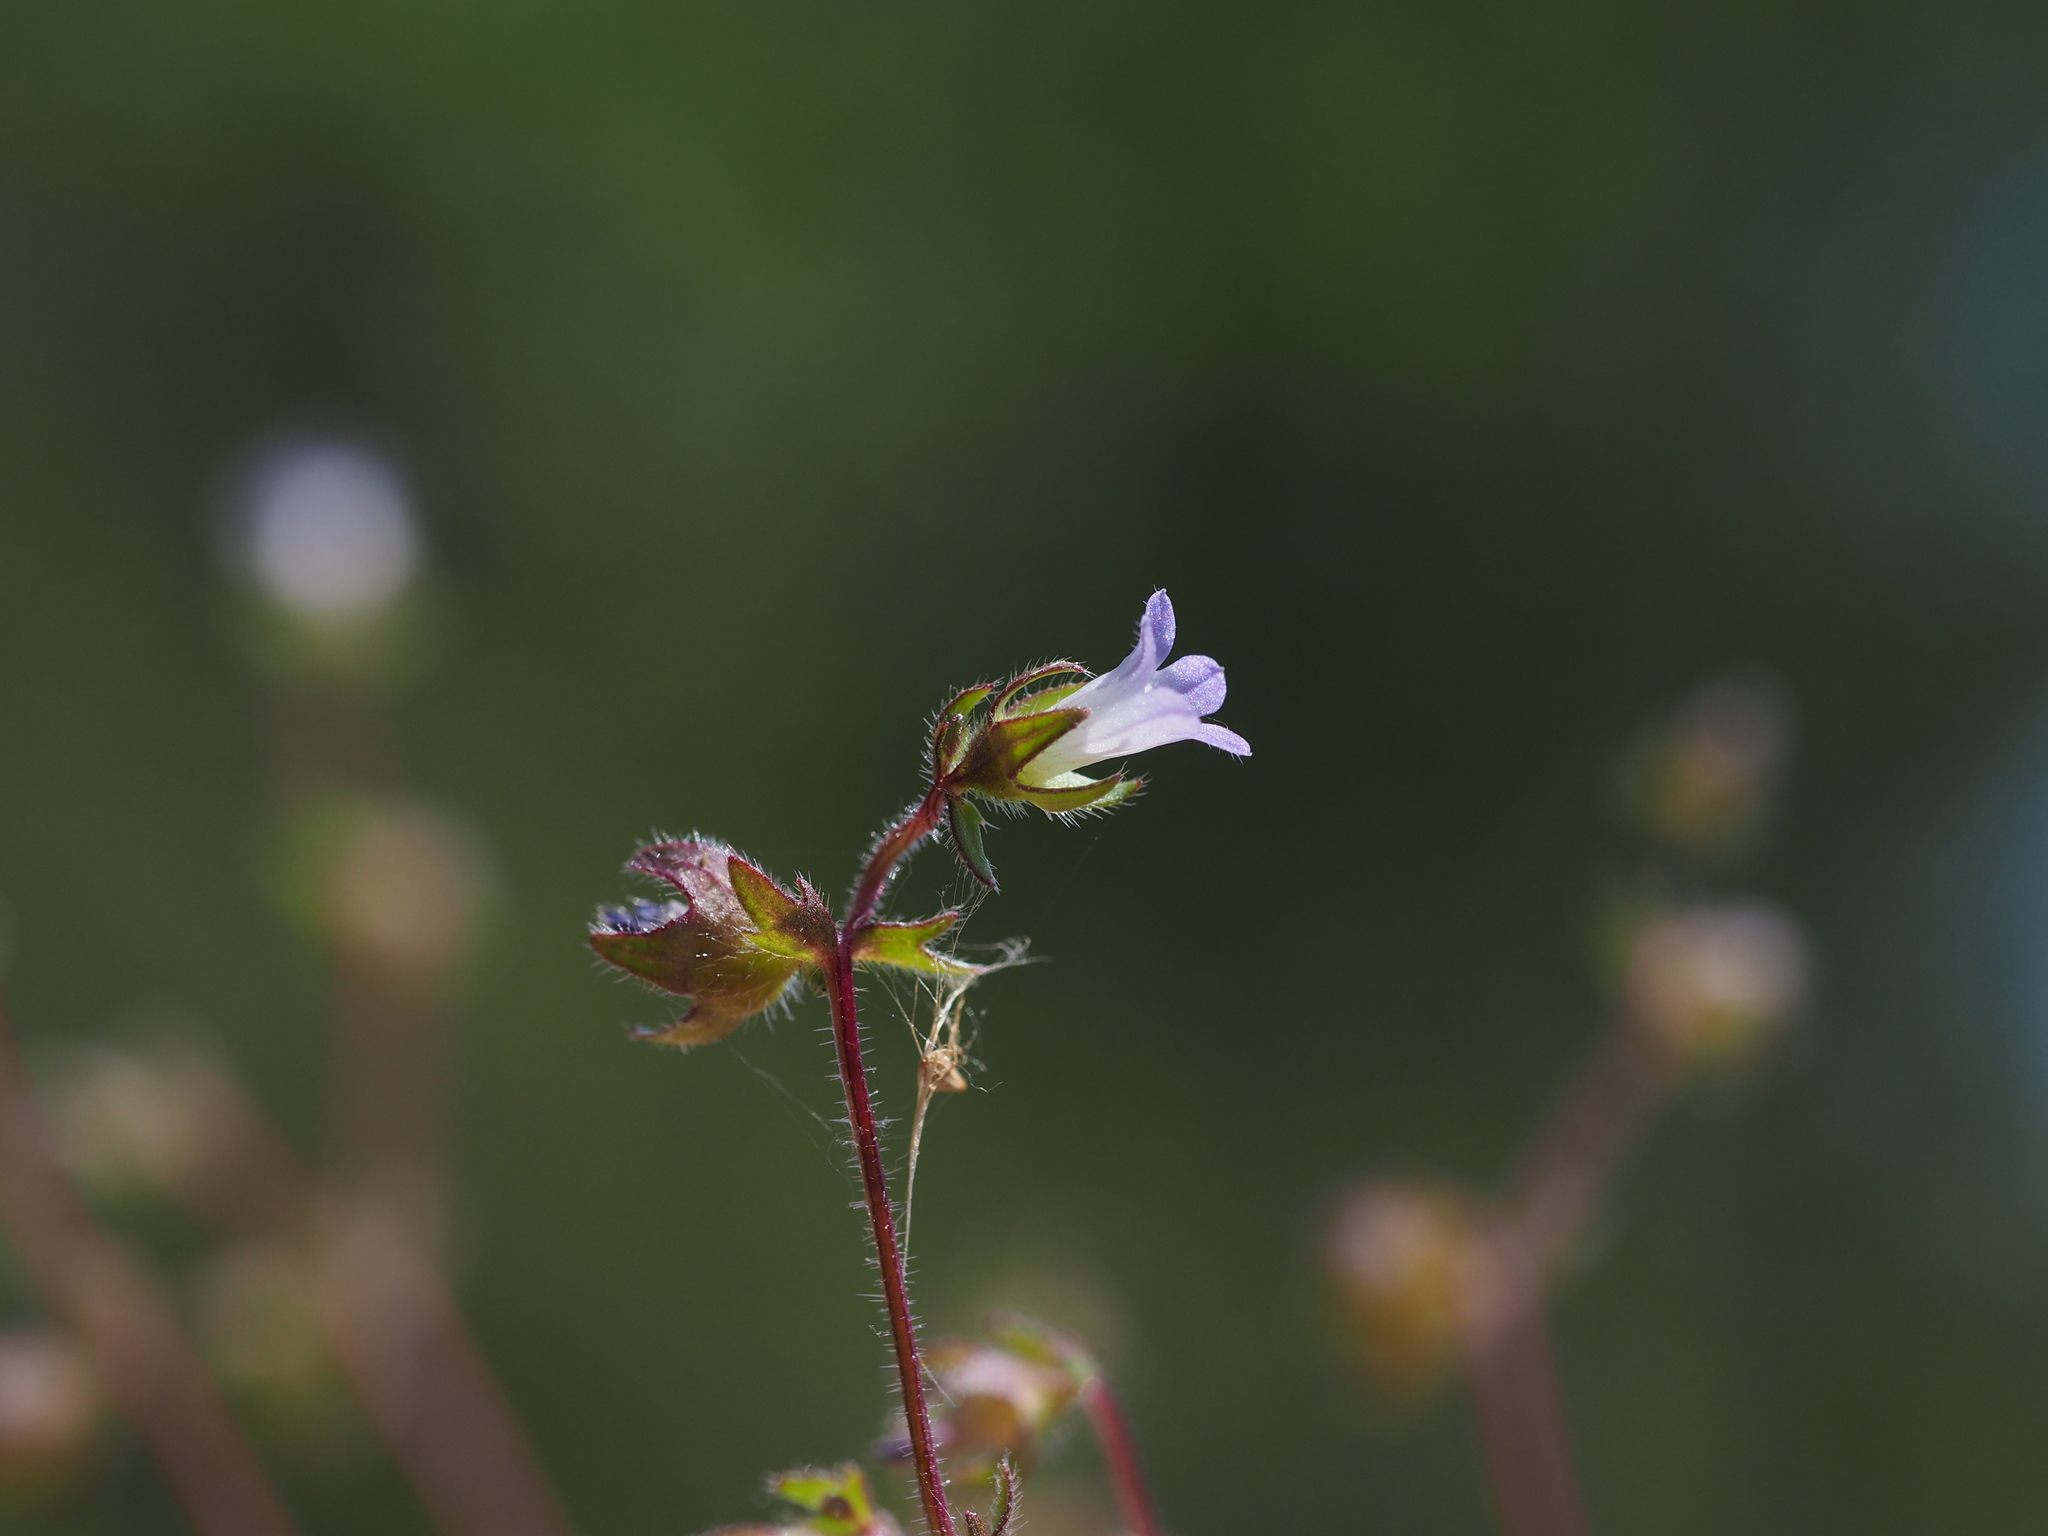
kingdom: Plantae
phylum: Tracheophyta
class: Magnoliopsida
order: Asterales
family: Campanulaceae
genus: Campanula
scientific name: Campanula erinus
